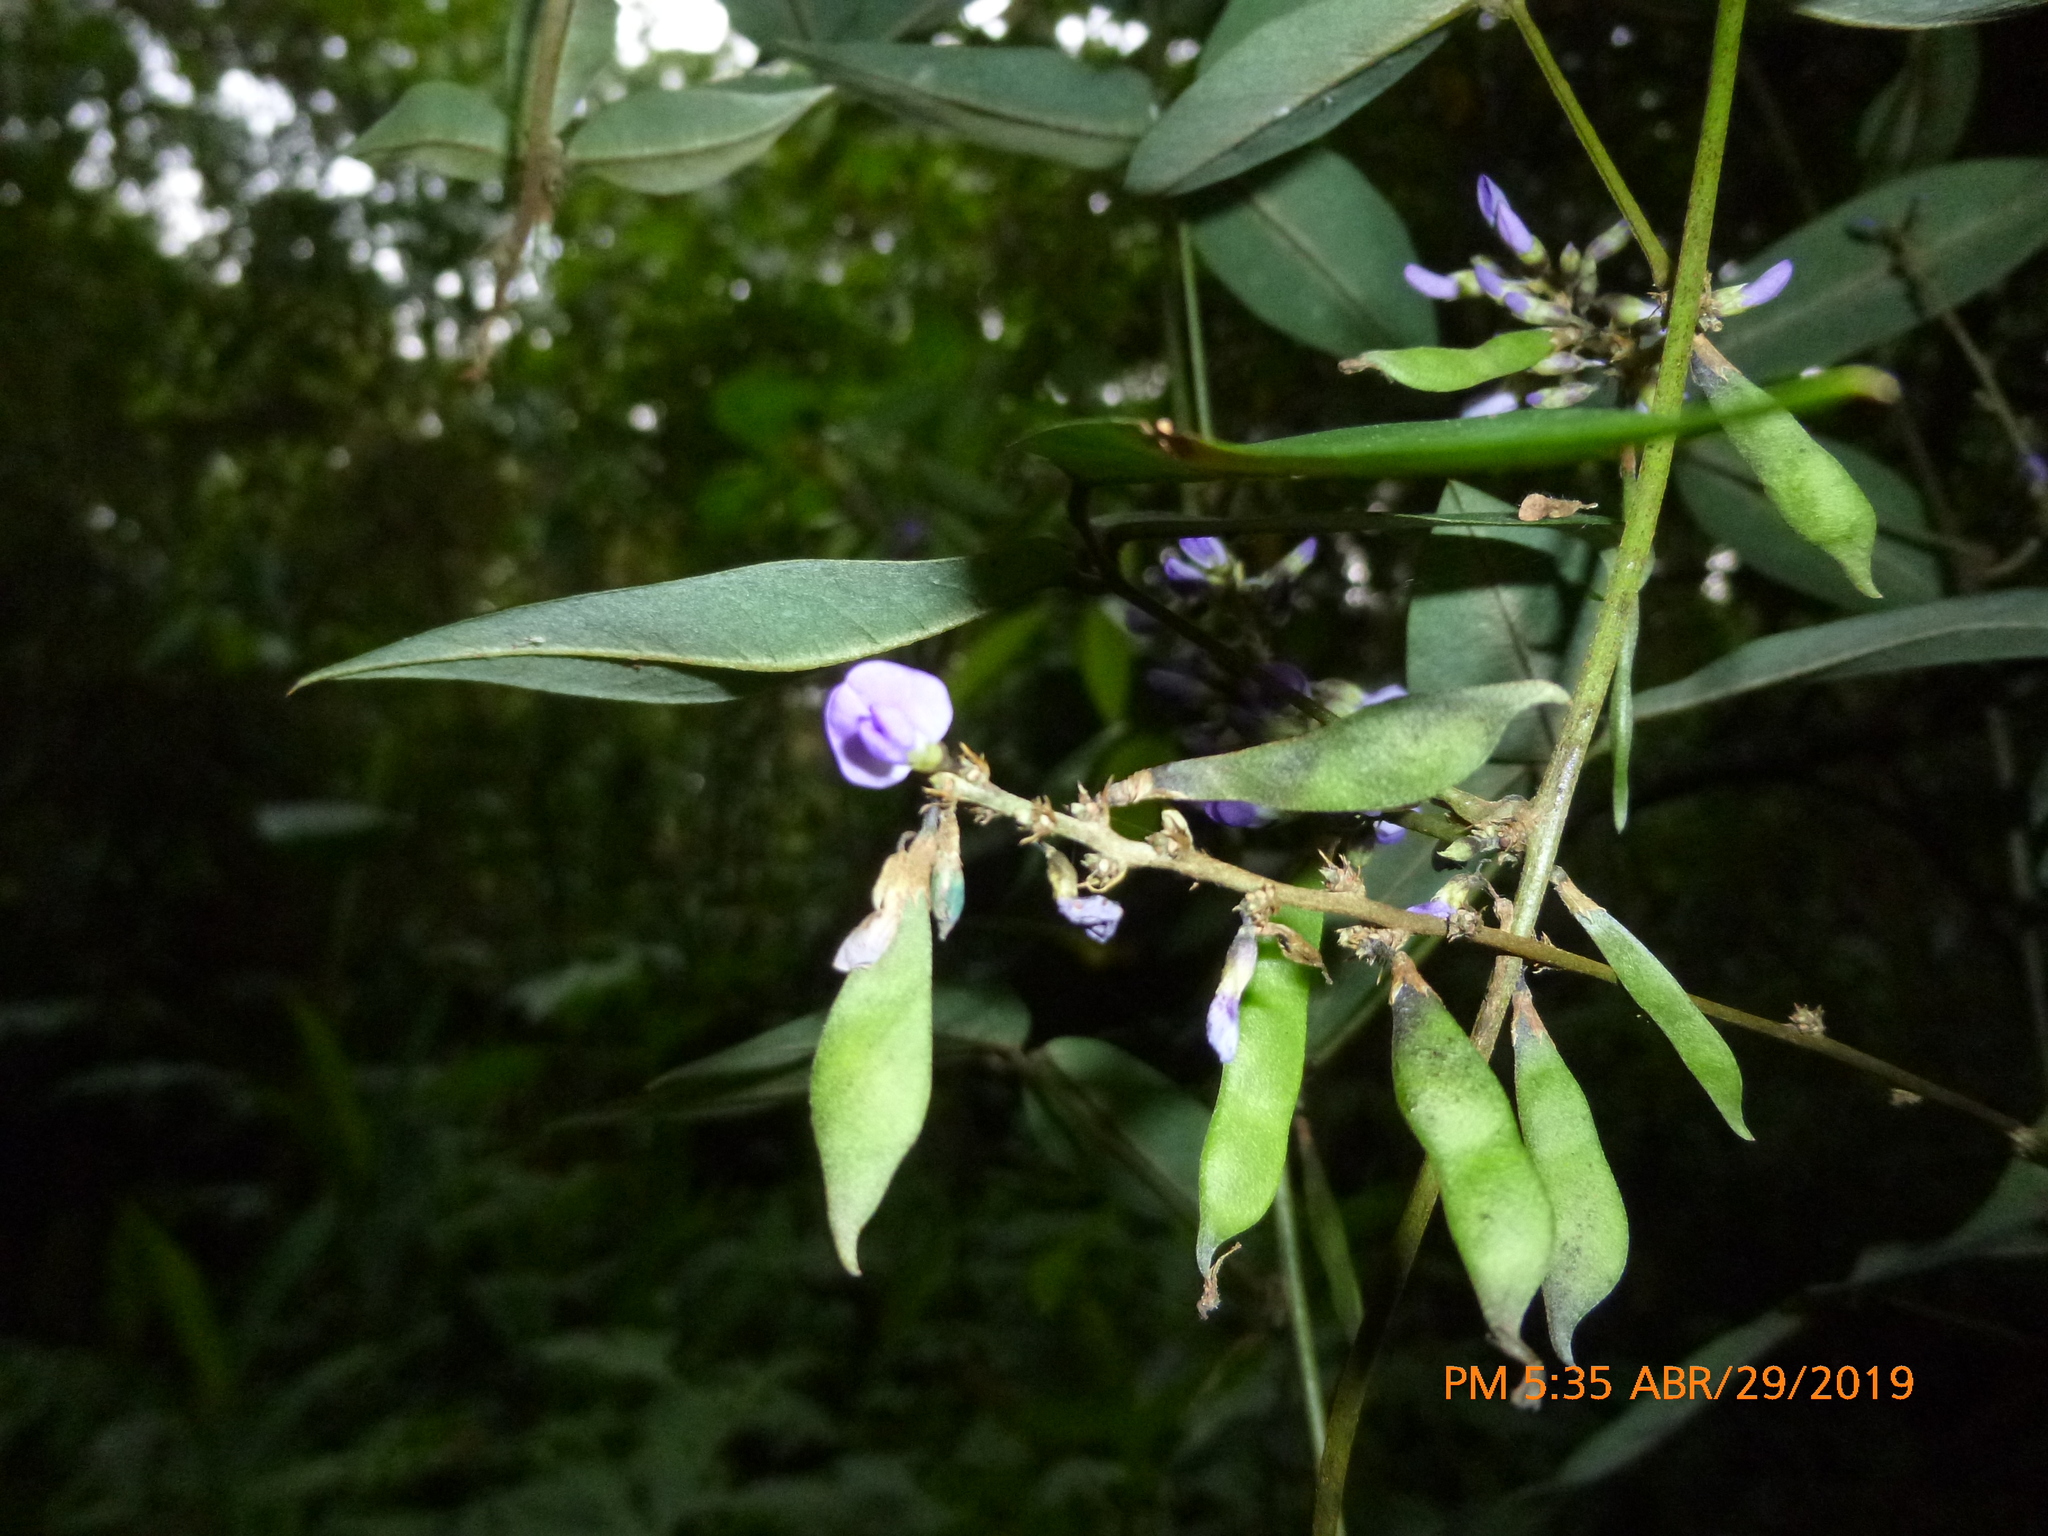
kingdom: Plantae
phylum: Tracheophyta
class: Magnoliopsida
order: Fabales
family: Fabaceae
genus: Calopogonium
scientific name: Calopogonium galactioides
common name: Legume
